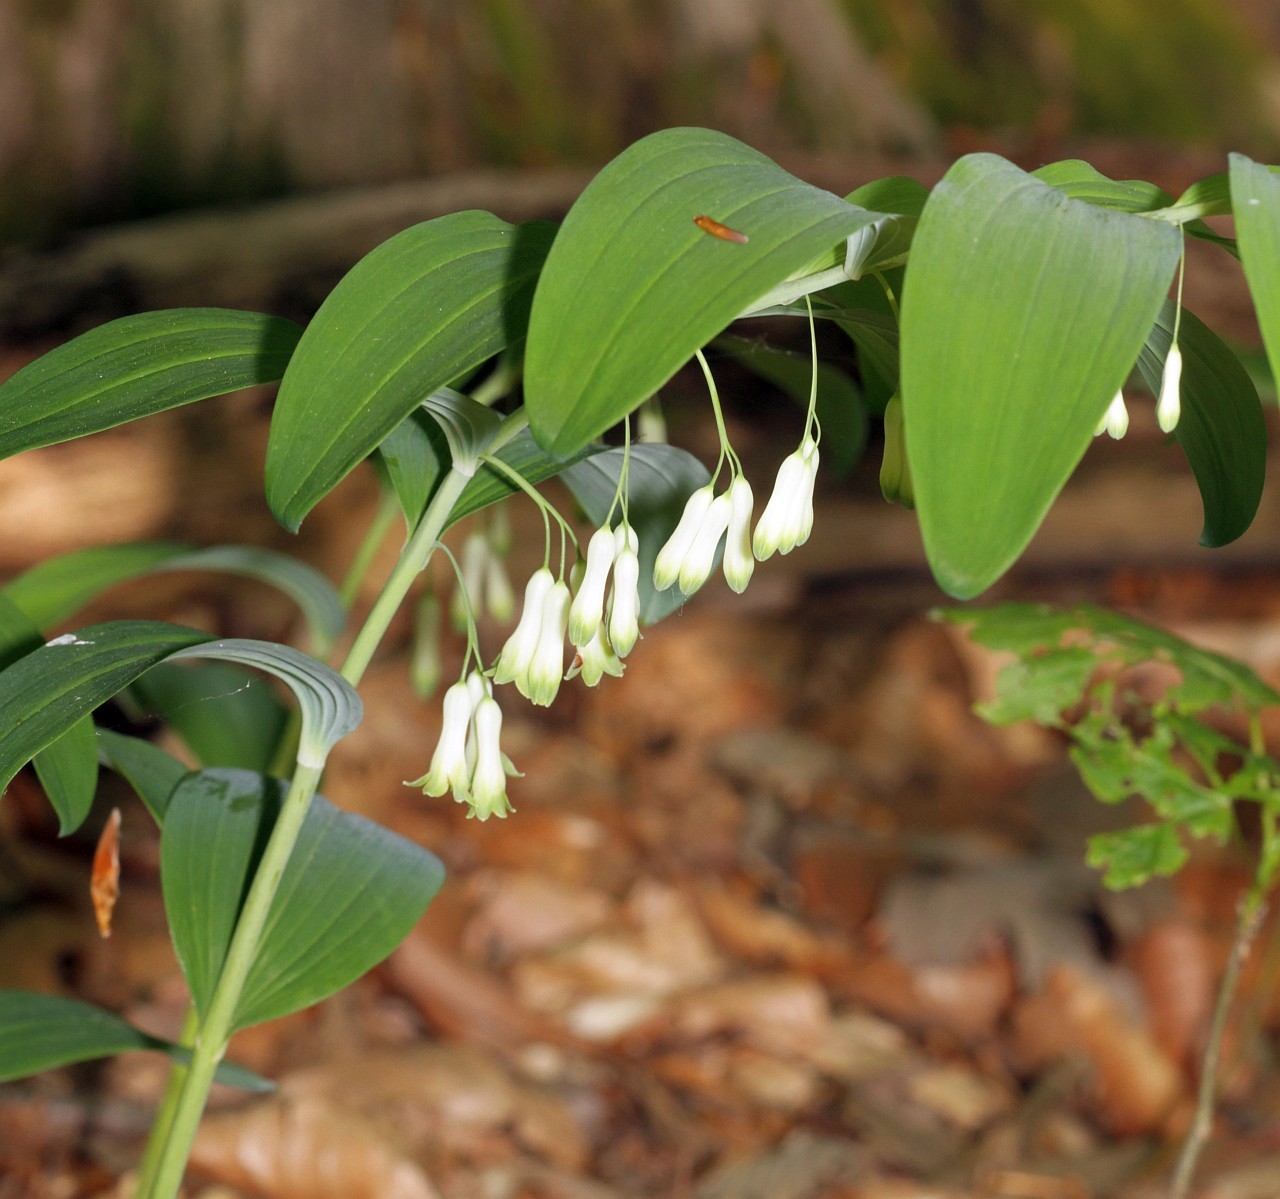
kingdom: Plantae
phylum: Tracheophyta
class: Liliopsida
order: Asparagales
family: Asparagaceae
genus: Polygonatum
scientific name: Polygonatum multiflorum
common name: Solomon's-seal
